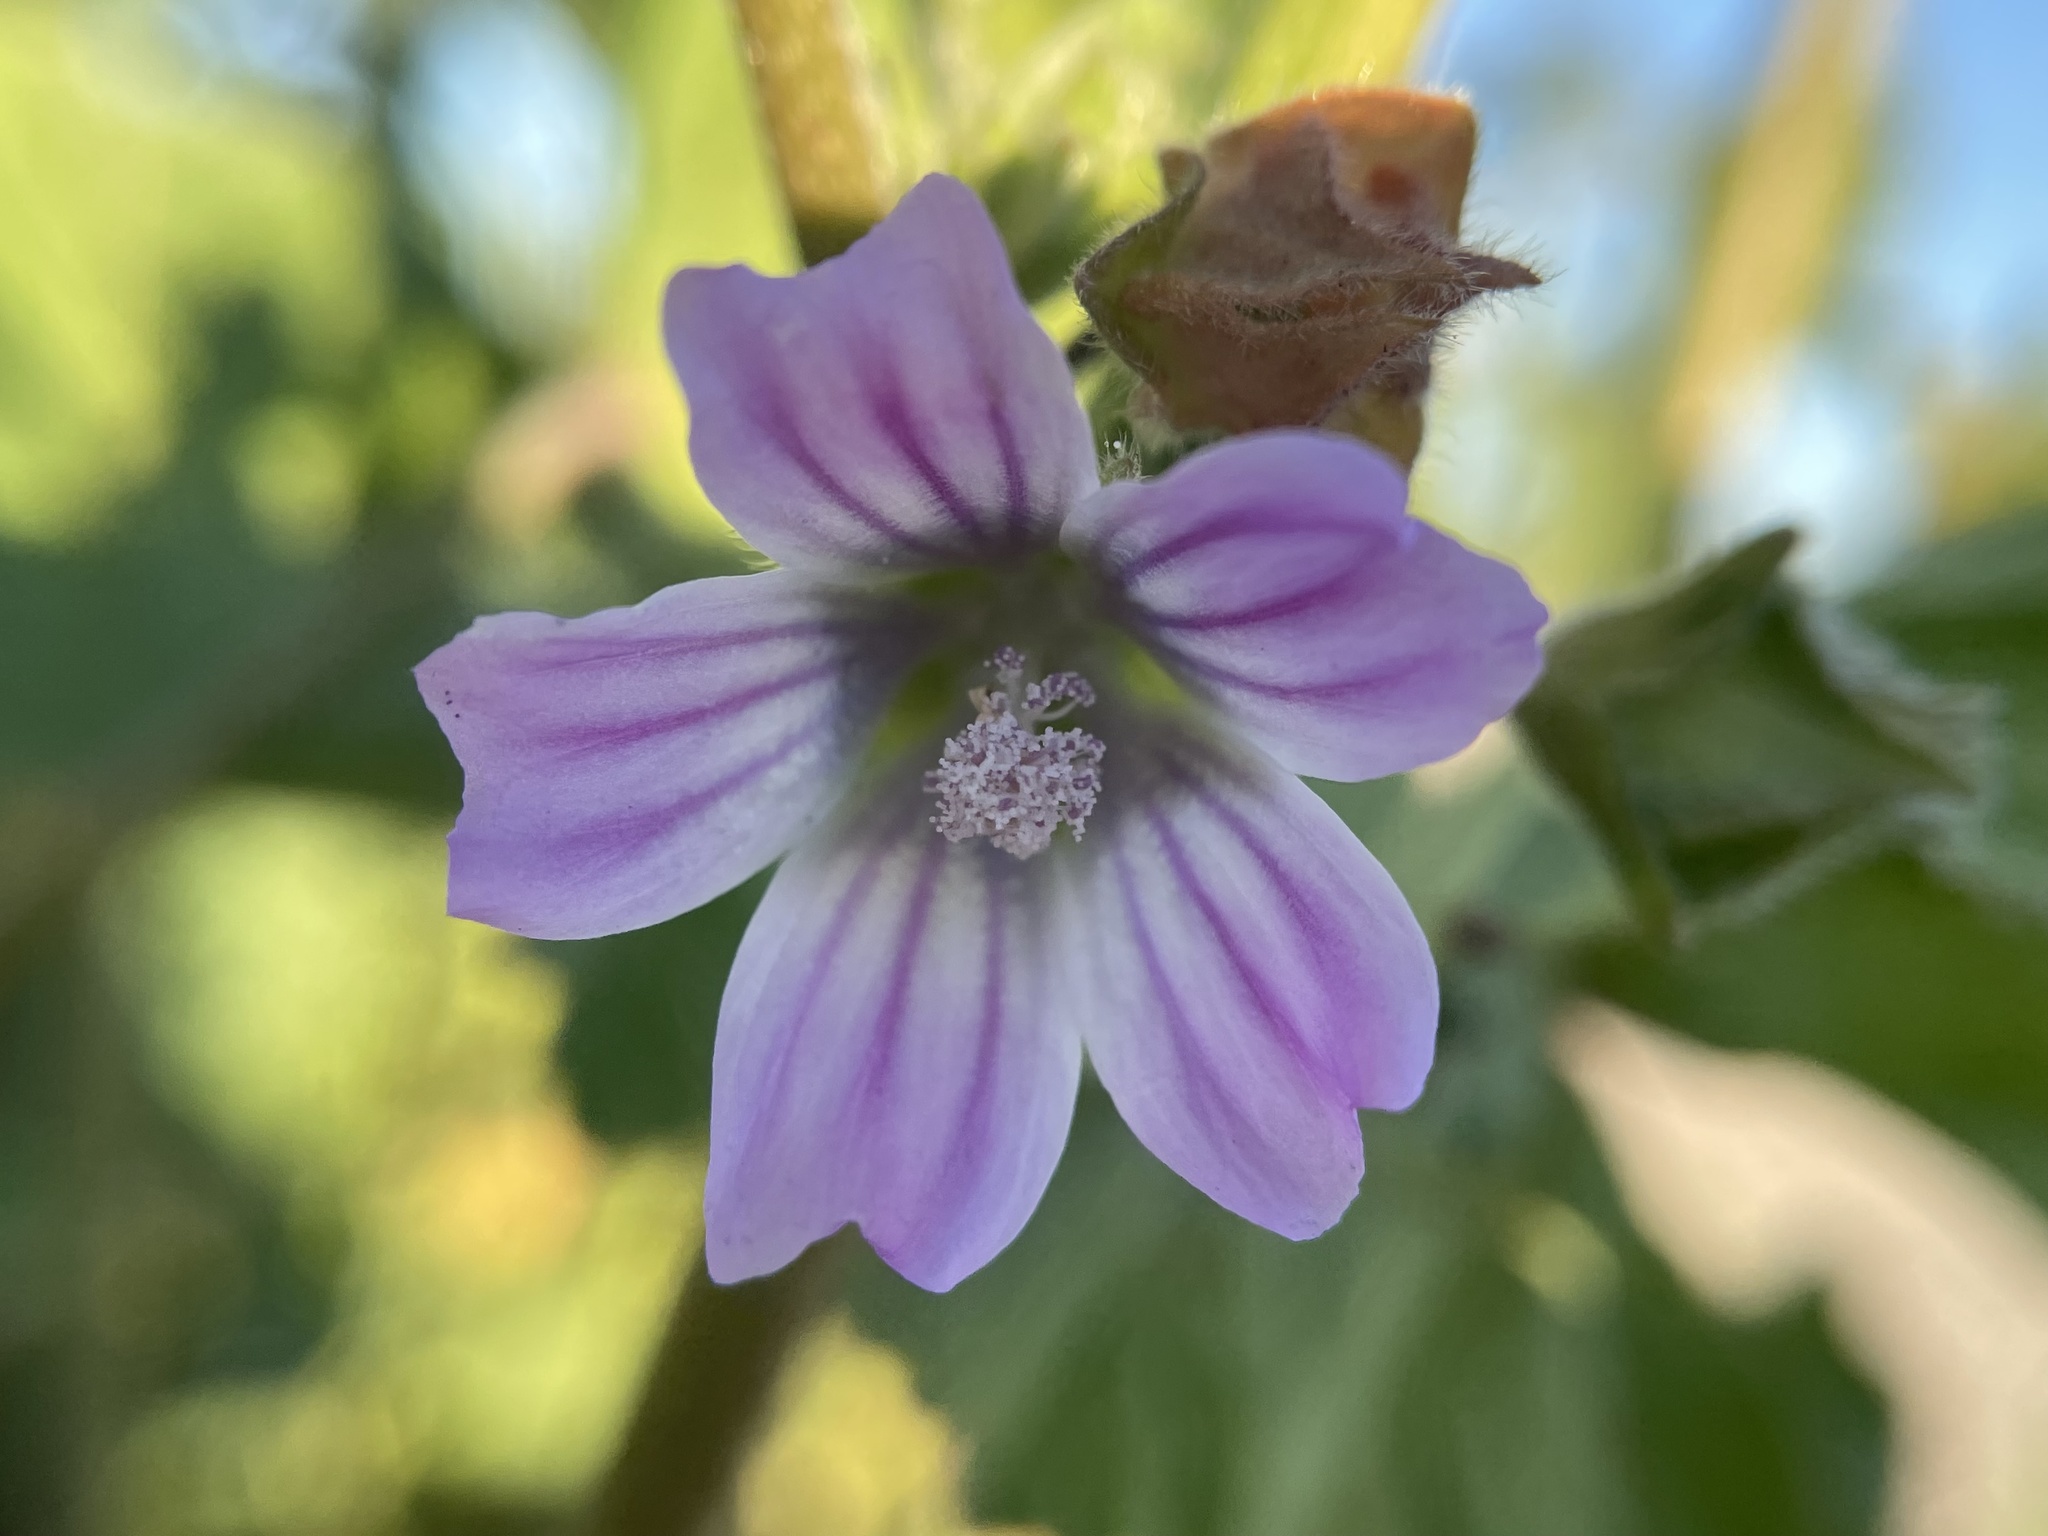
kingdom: Plantae
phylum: Tracheophyta
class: Magnoliopsida
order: Malvales
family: Malvaceae
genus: Malva
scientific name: Malva multiflora
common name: Cheeseweed
